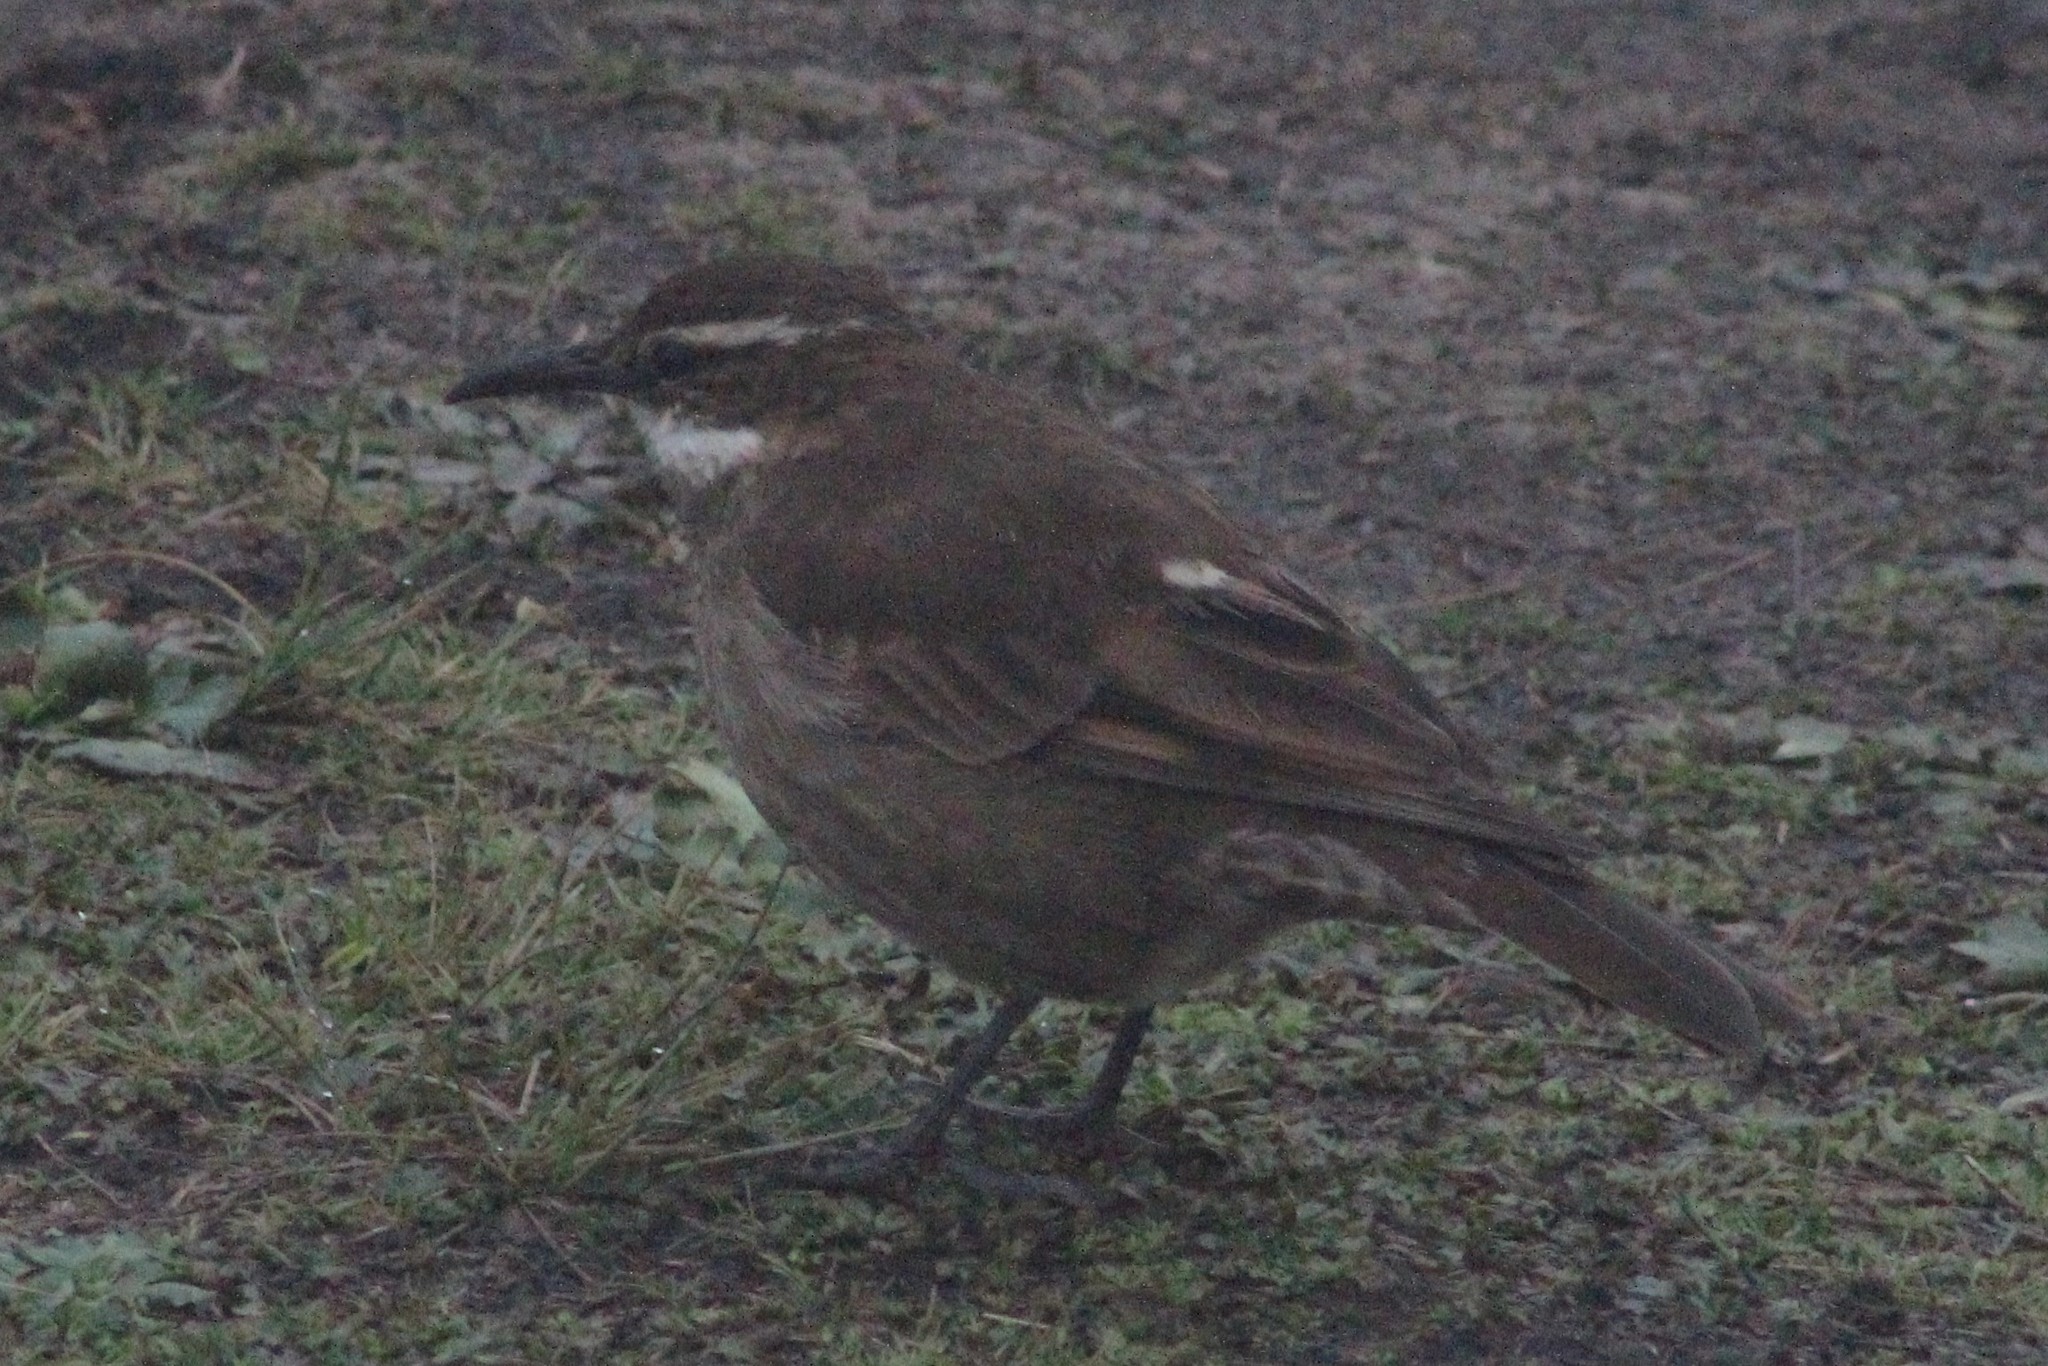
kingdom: Animalia
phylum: Chordata
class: Aves
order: Passeriformes
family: Furnariidae
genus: Cinclodes
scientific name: Cinclodes albidiventris
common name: Chestnut-winged cinclodes
